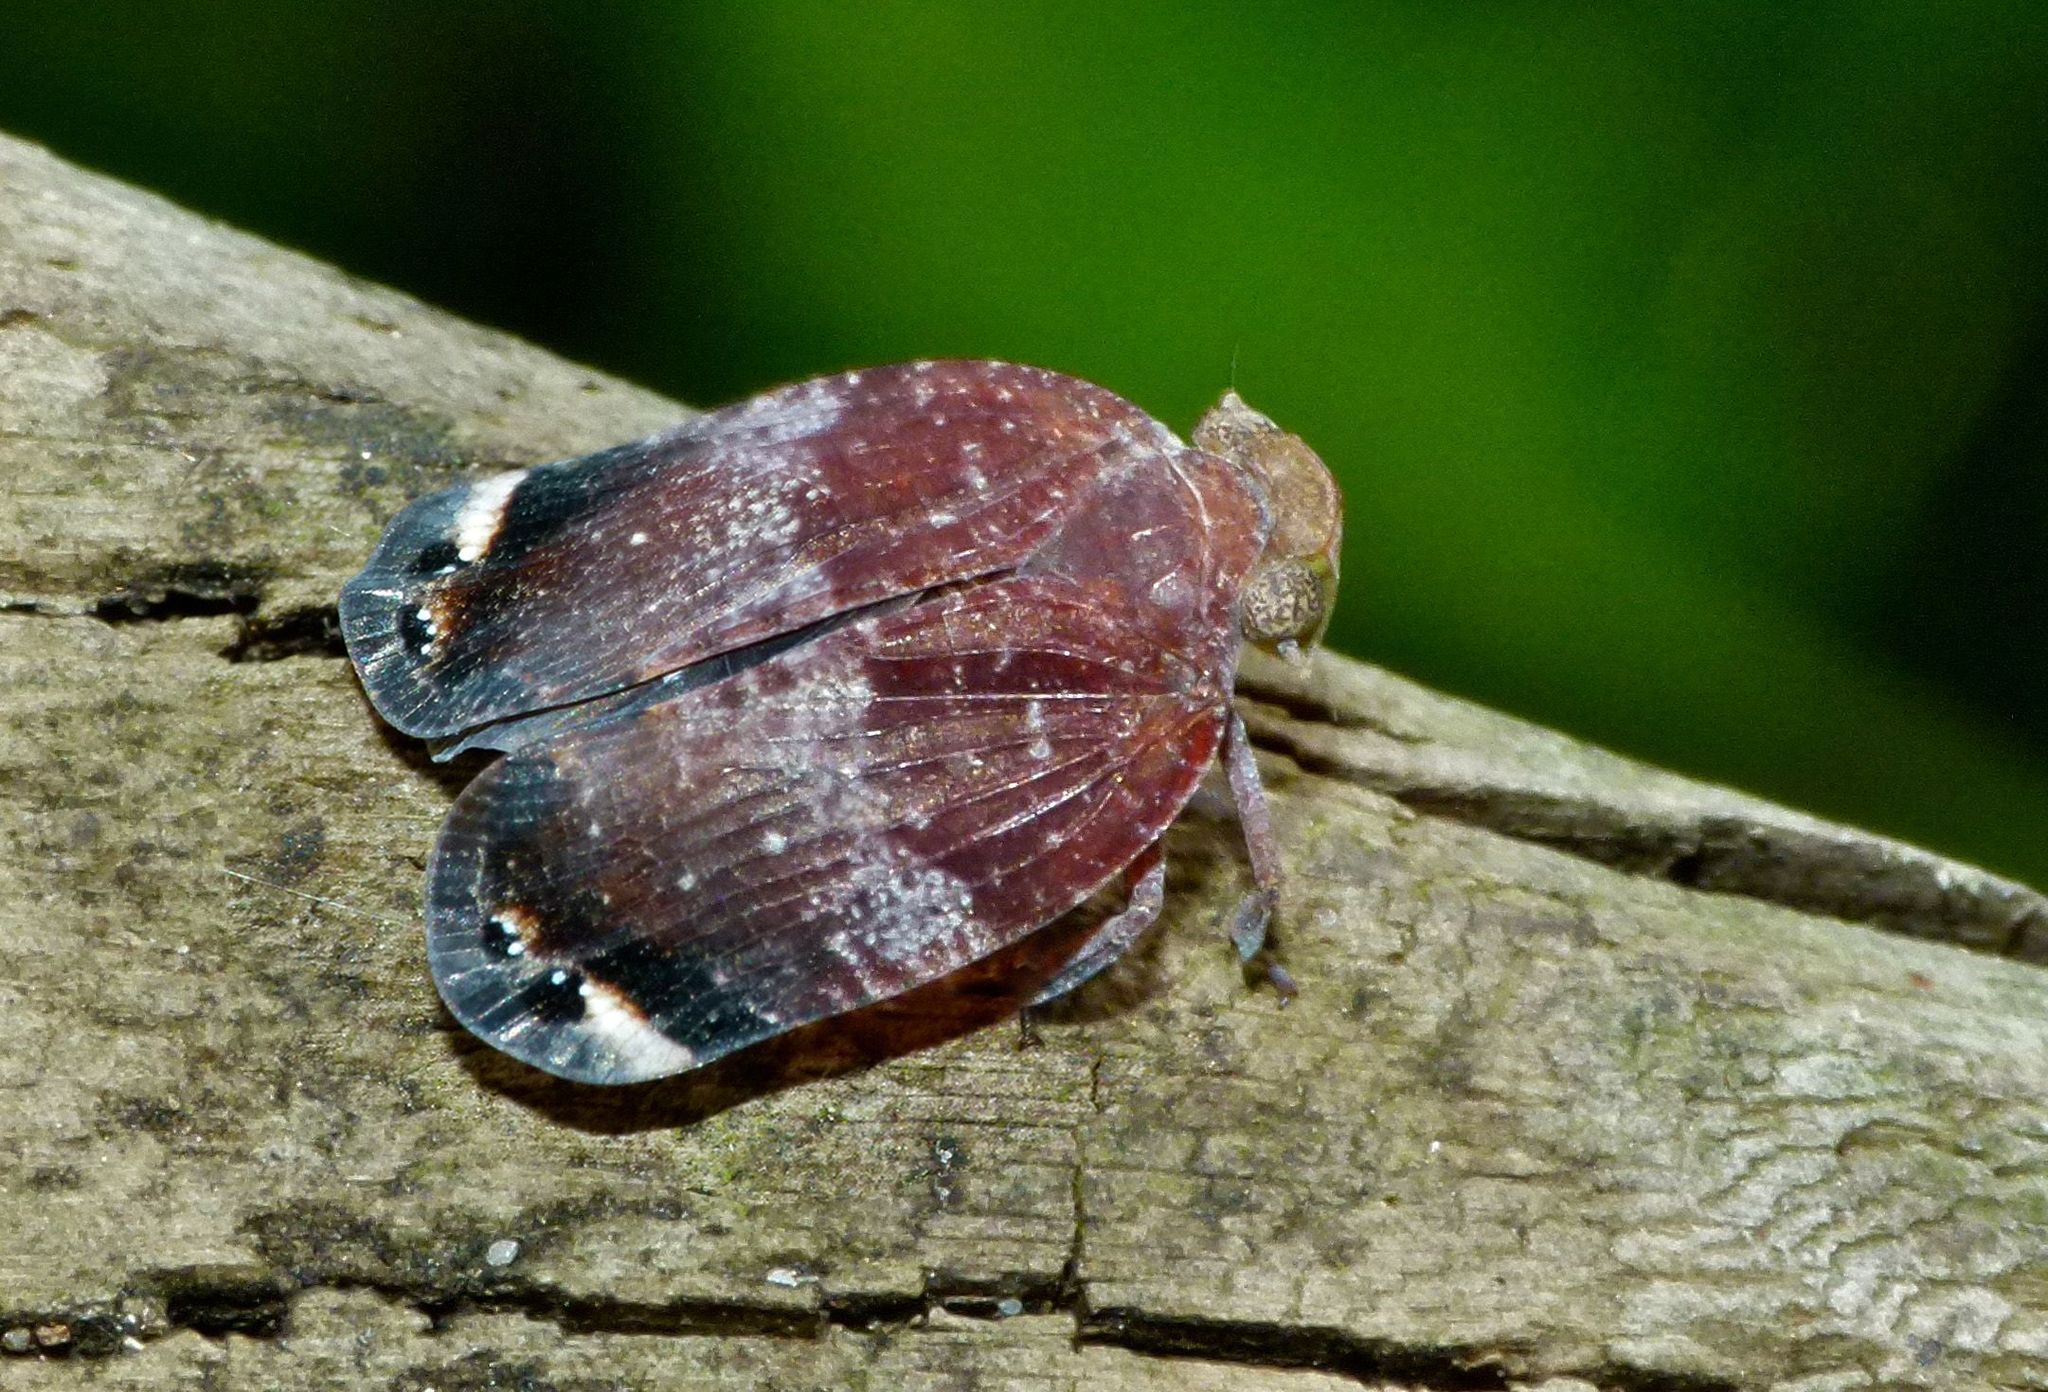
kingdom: Animalia
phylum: Arthropoda
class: Insecta
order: Hemiptera
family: Eurybrachidae
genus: Platybrachys
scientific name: Platybrachys decemmacula
